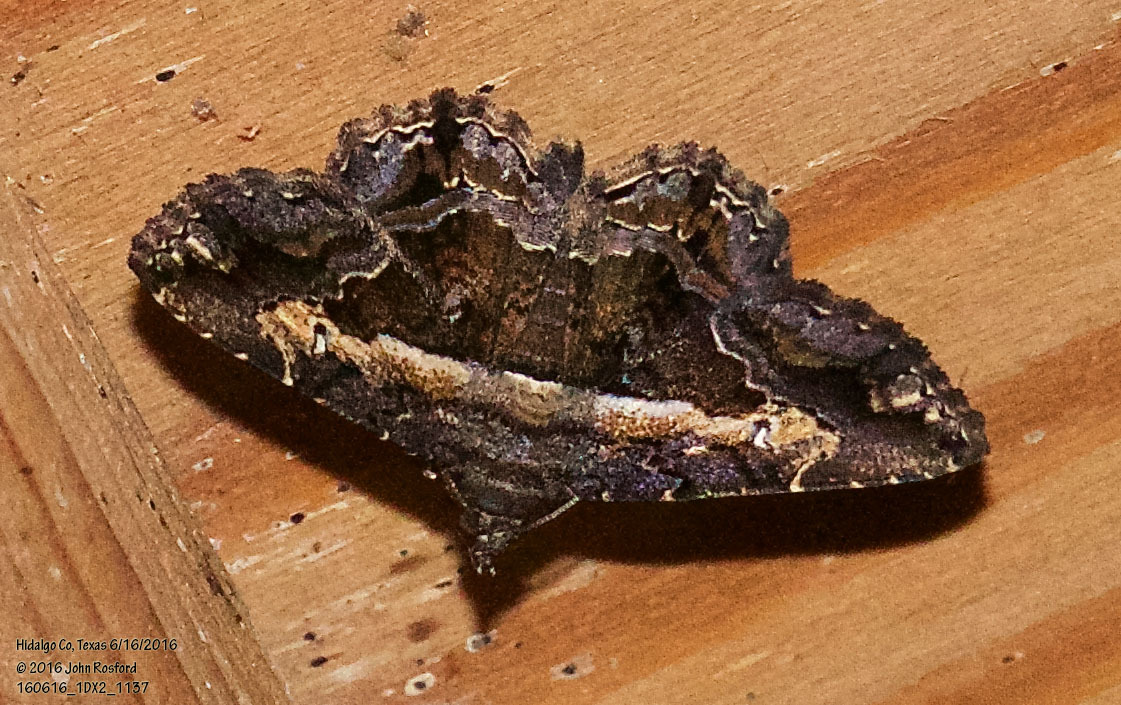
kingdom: Animalia
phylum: Arthropoda
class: Insecta
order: Lepidoptera
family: Erebidae
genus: Helia
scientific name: Helia agna
